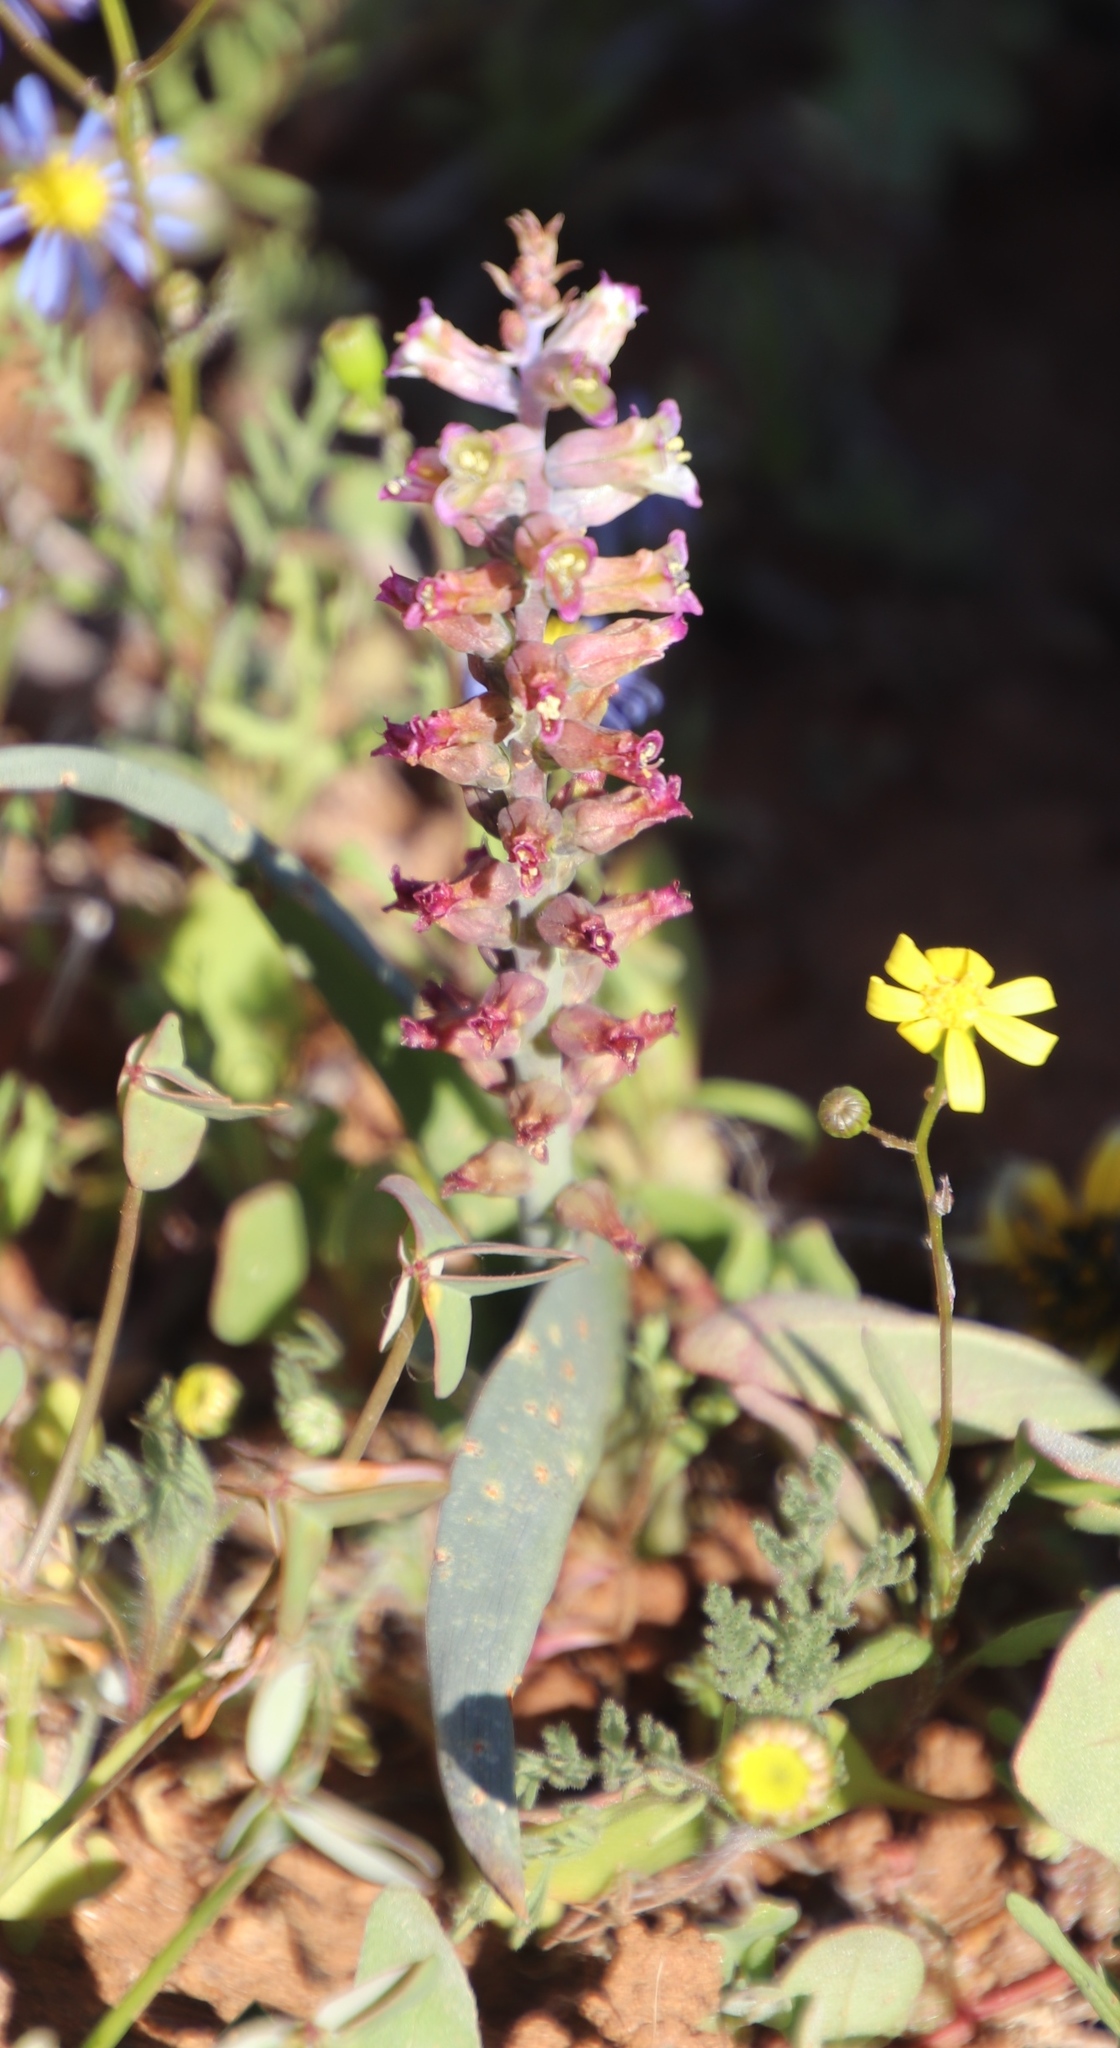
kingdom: Plantae
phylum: Tracheophyta
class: Liliopsida
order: Asparagales
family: Asparagaceae
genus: Lachenalia
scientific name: Lachenalia obscura
